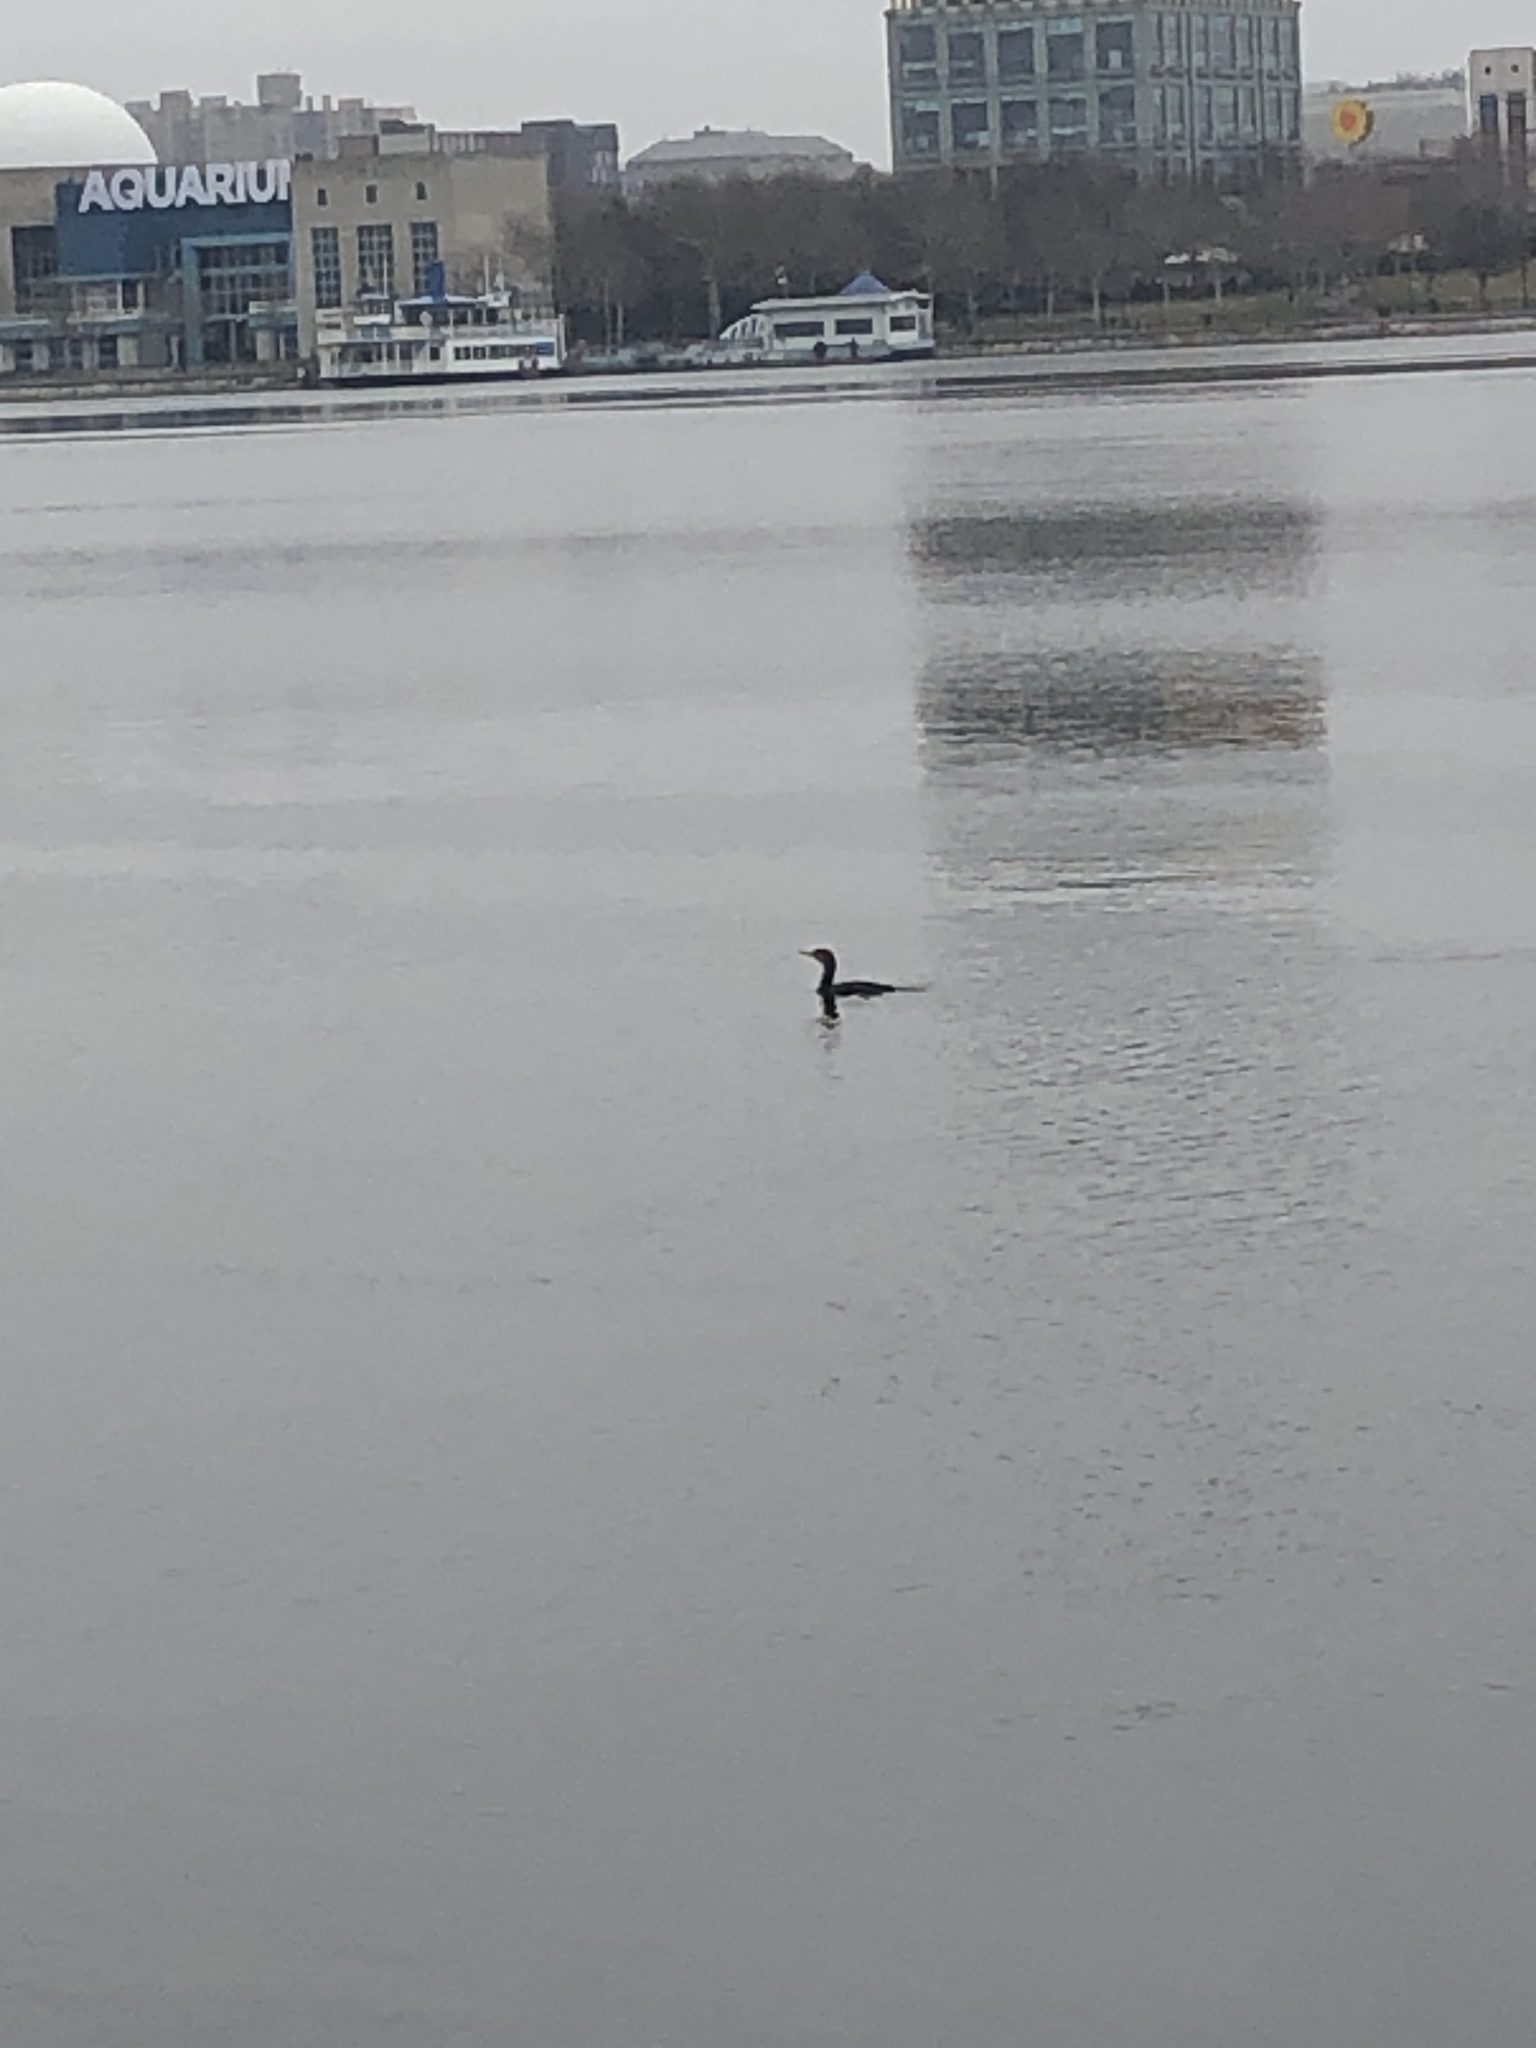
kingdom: Animalia
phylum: Chordata
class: Aves
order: Suliformes
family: Phalacrocoracidae
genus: Phalacrocorax
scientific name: Phalacrocorax auritus
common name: Double-crested cormorant
